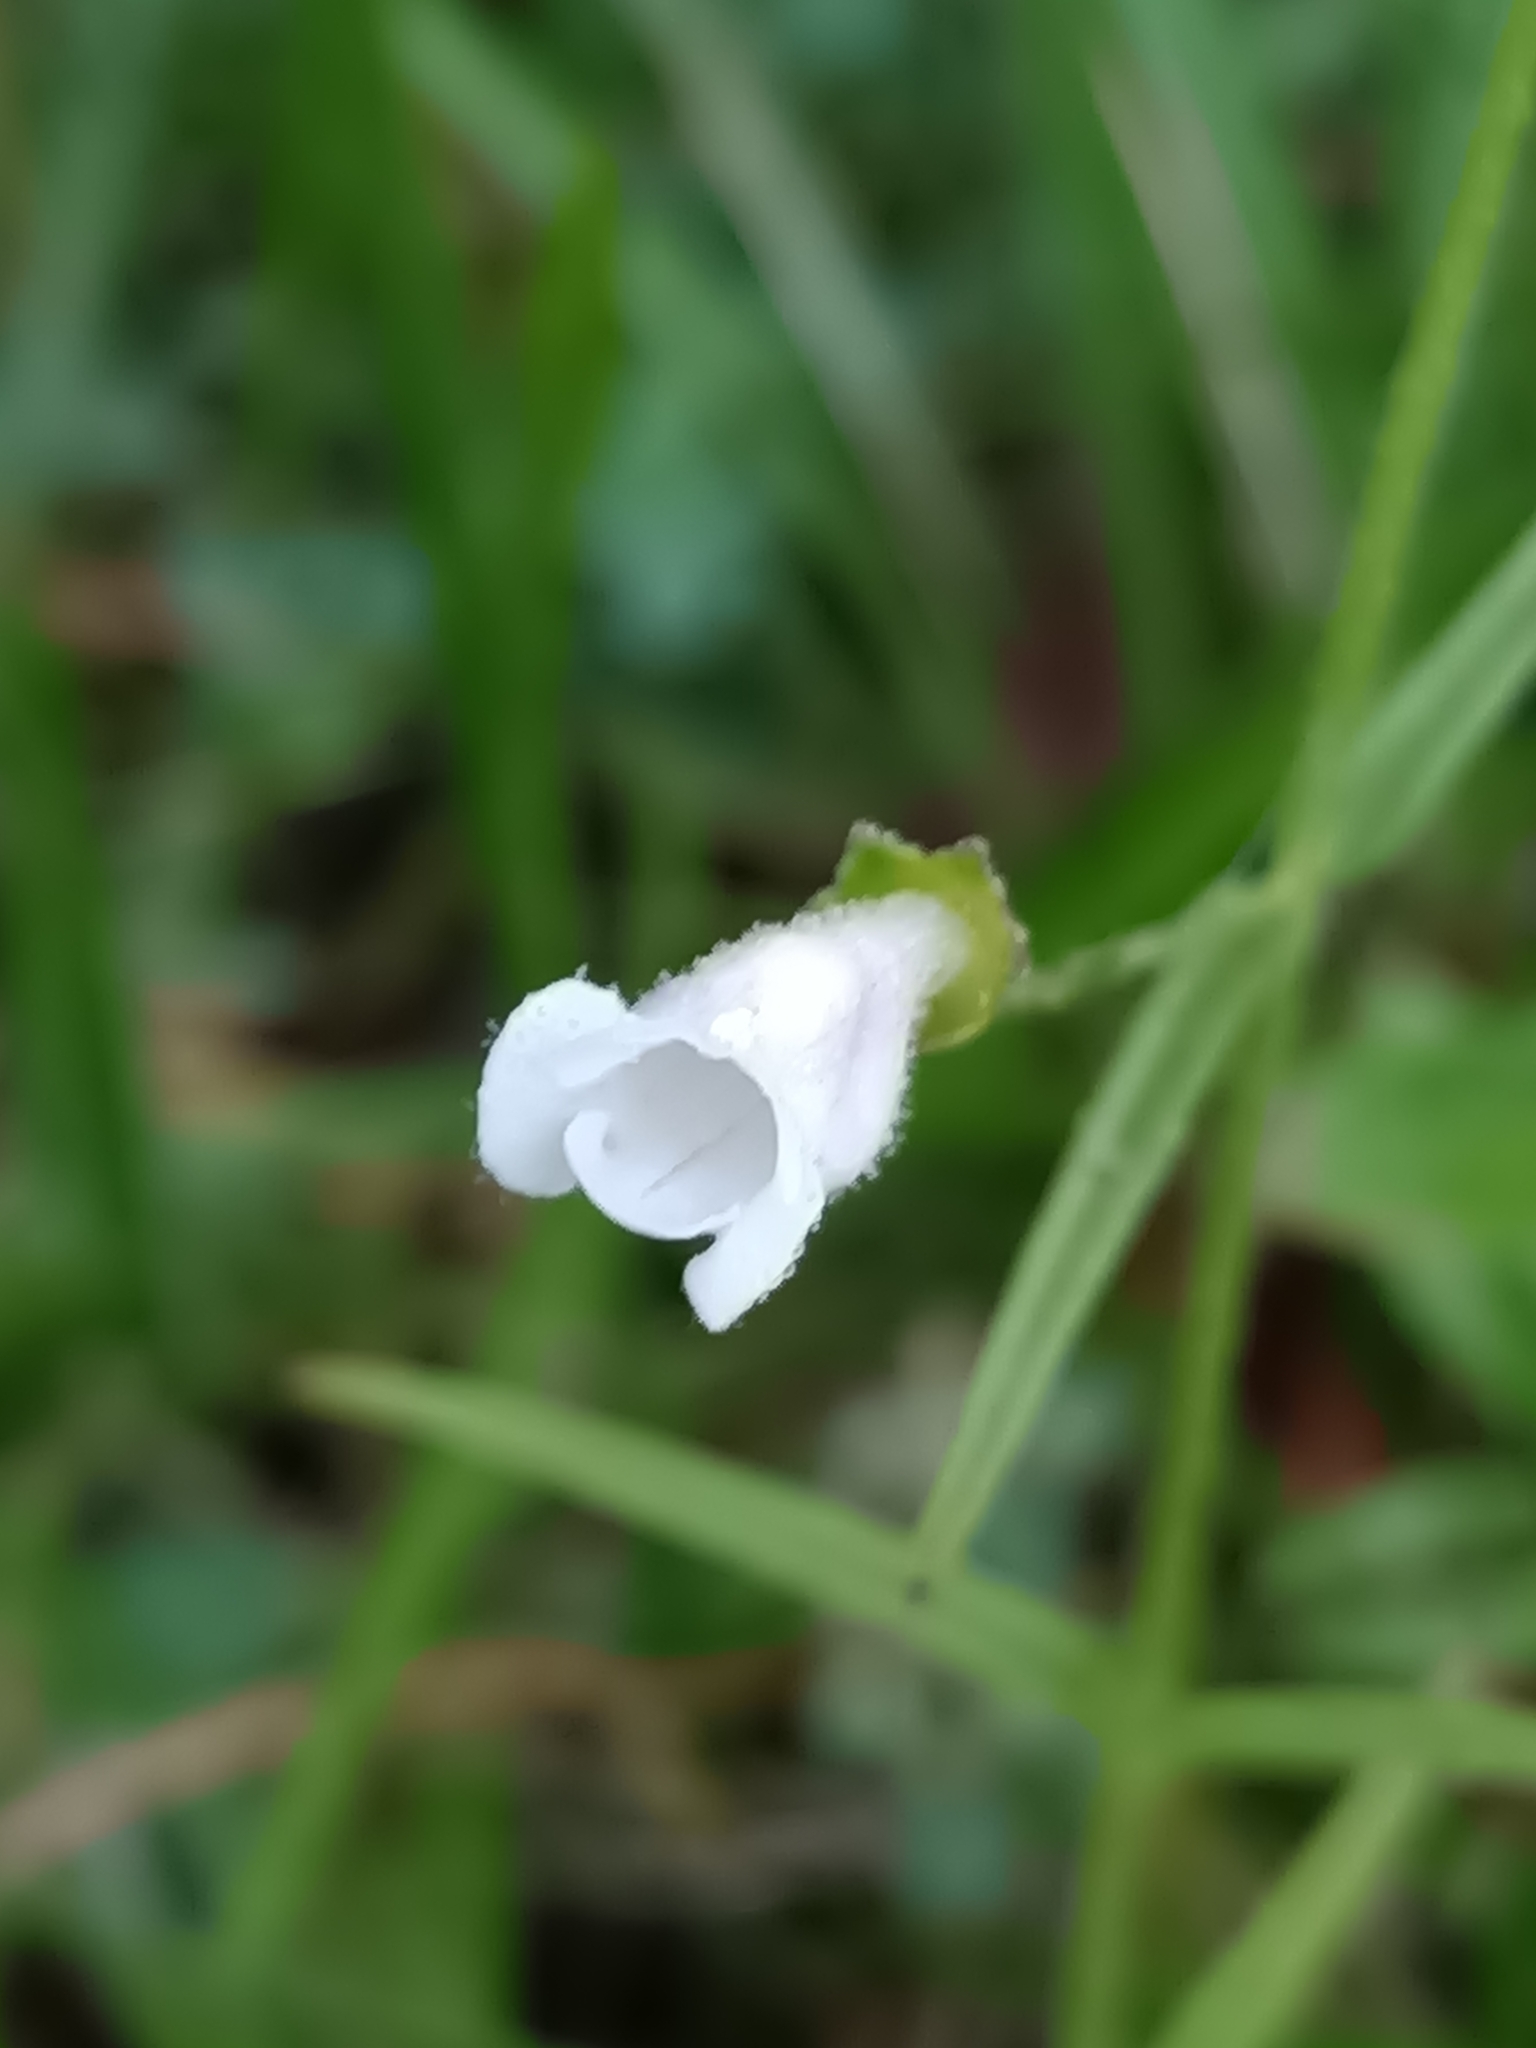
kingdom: Plantae
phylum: Tracheophyta
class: Magnoliopsida
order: Lamiales
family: Orobanchaceae
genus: Agalinis
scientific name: Agalinis hispidula
